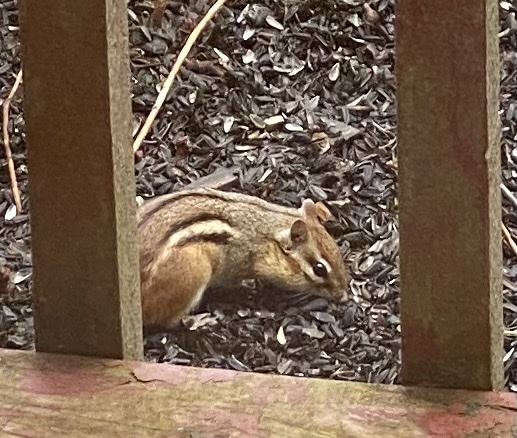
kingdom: Animalia
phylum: Chordata
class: Mammalia
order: Rodentia
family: Sciuridae
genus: Tamias
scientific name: Tamias striatus
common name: Eastern chipmunk
